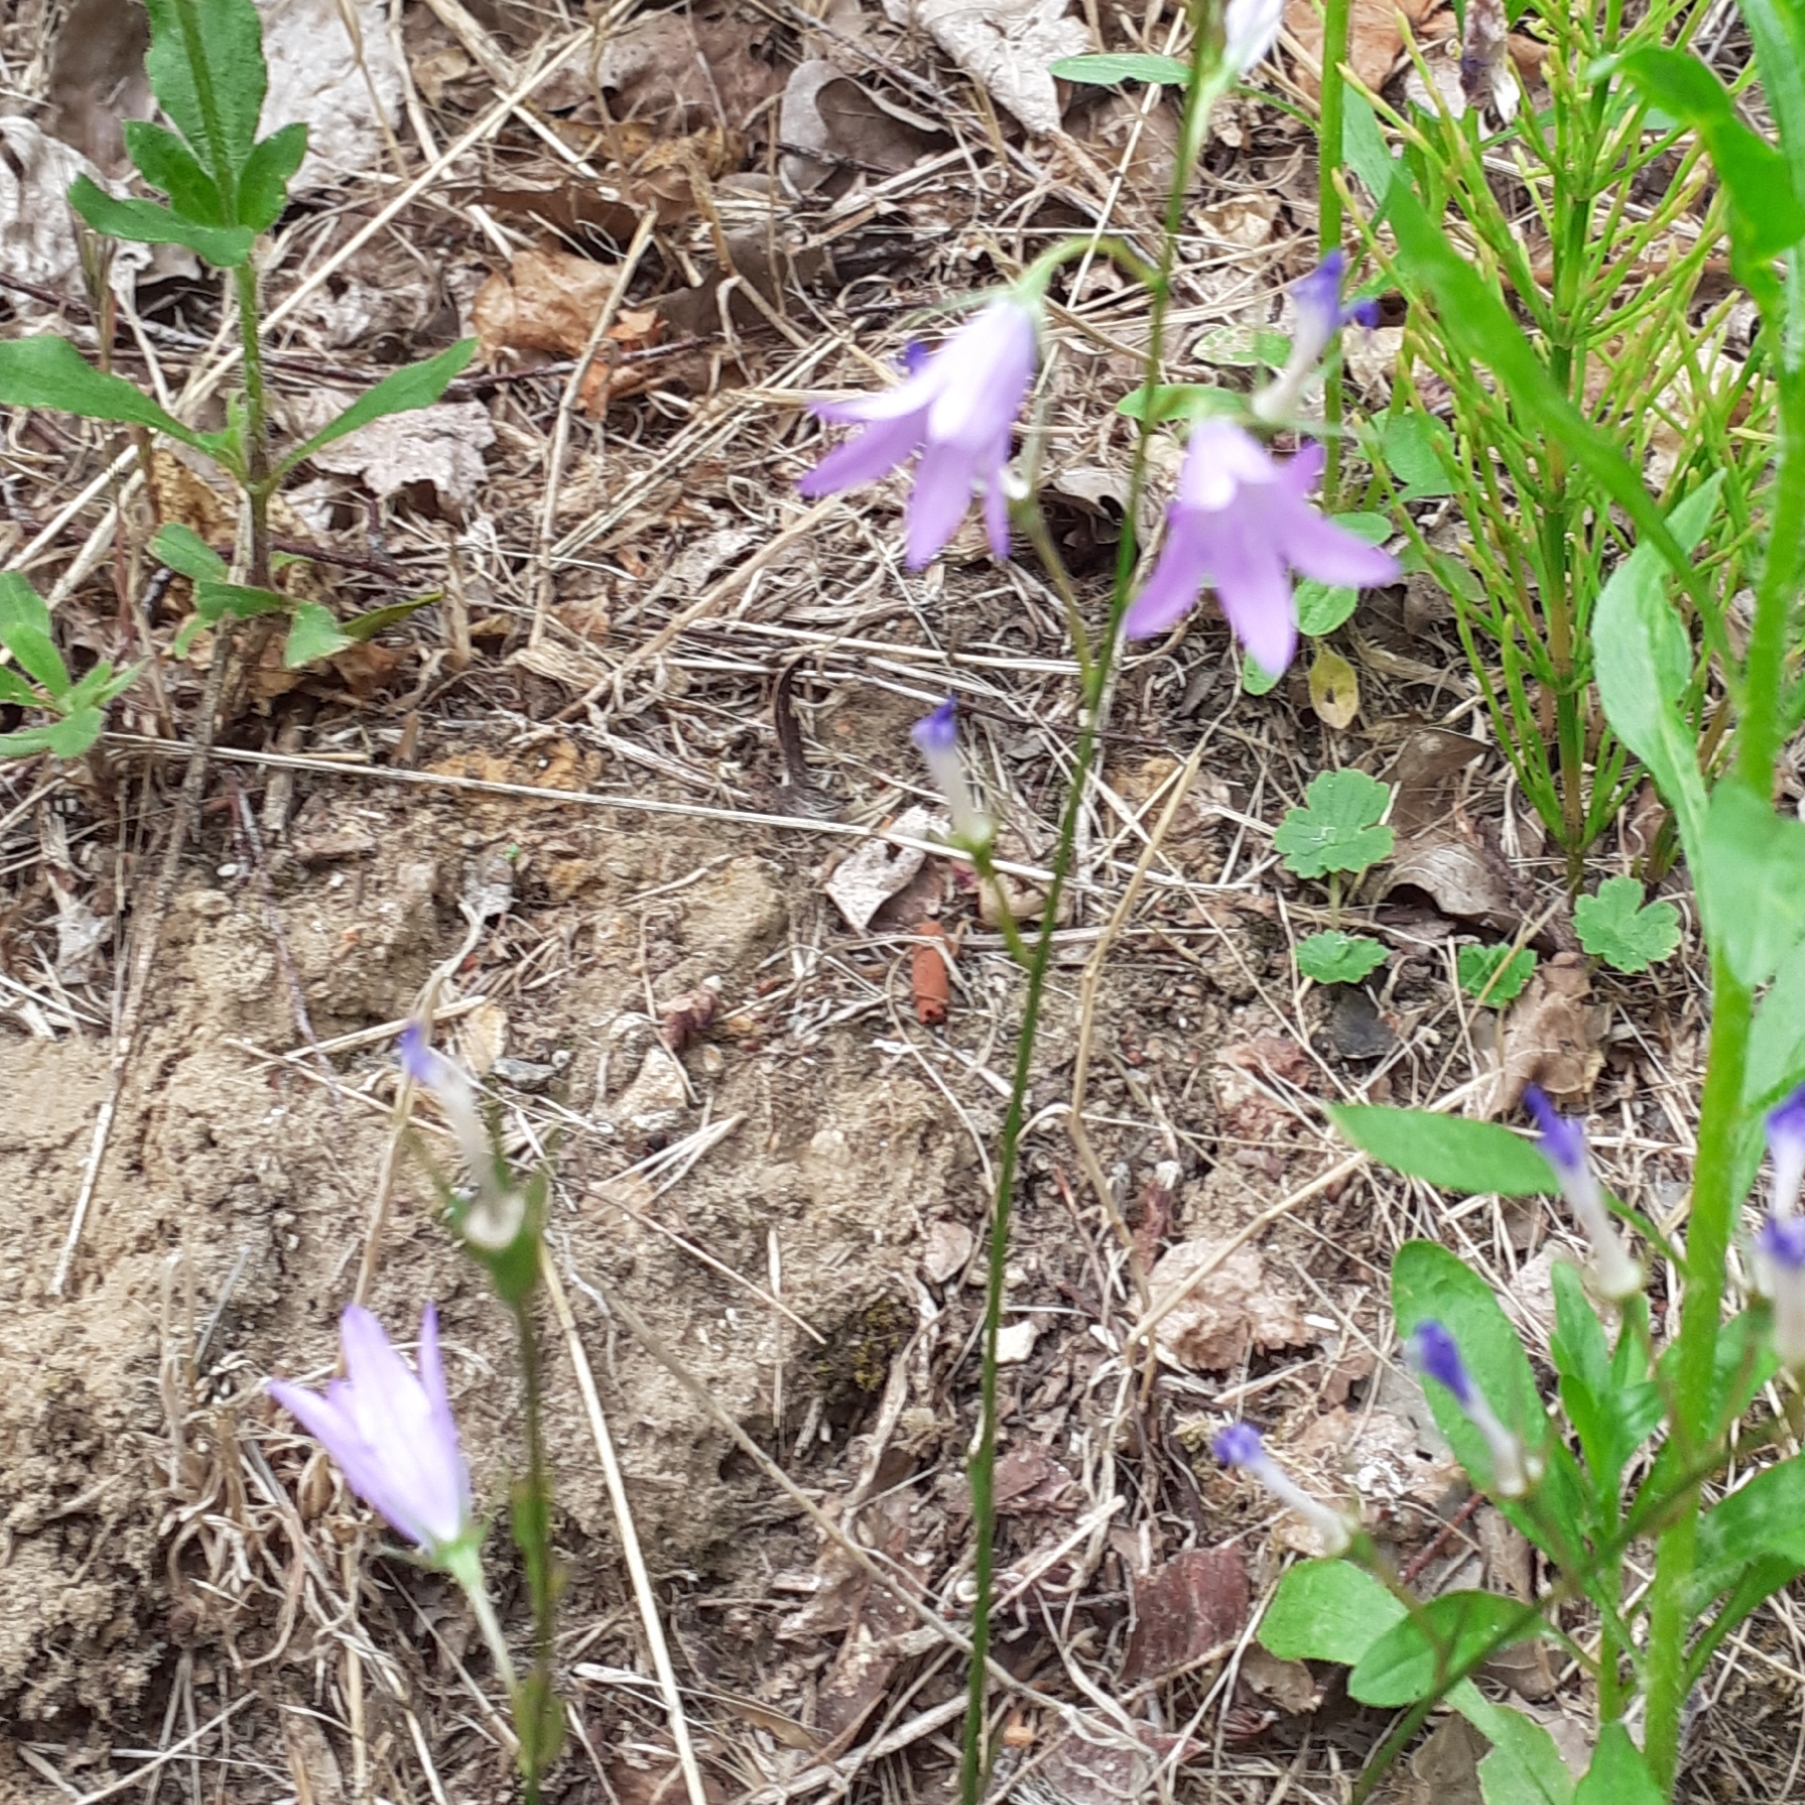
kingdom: Plantae
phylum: Tracheophyta
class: Magnoliopsida
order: Asterales
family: Campanulaceae
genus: Campanula
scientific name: Campanula rapunculus
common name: Rampion bellflower
